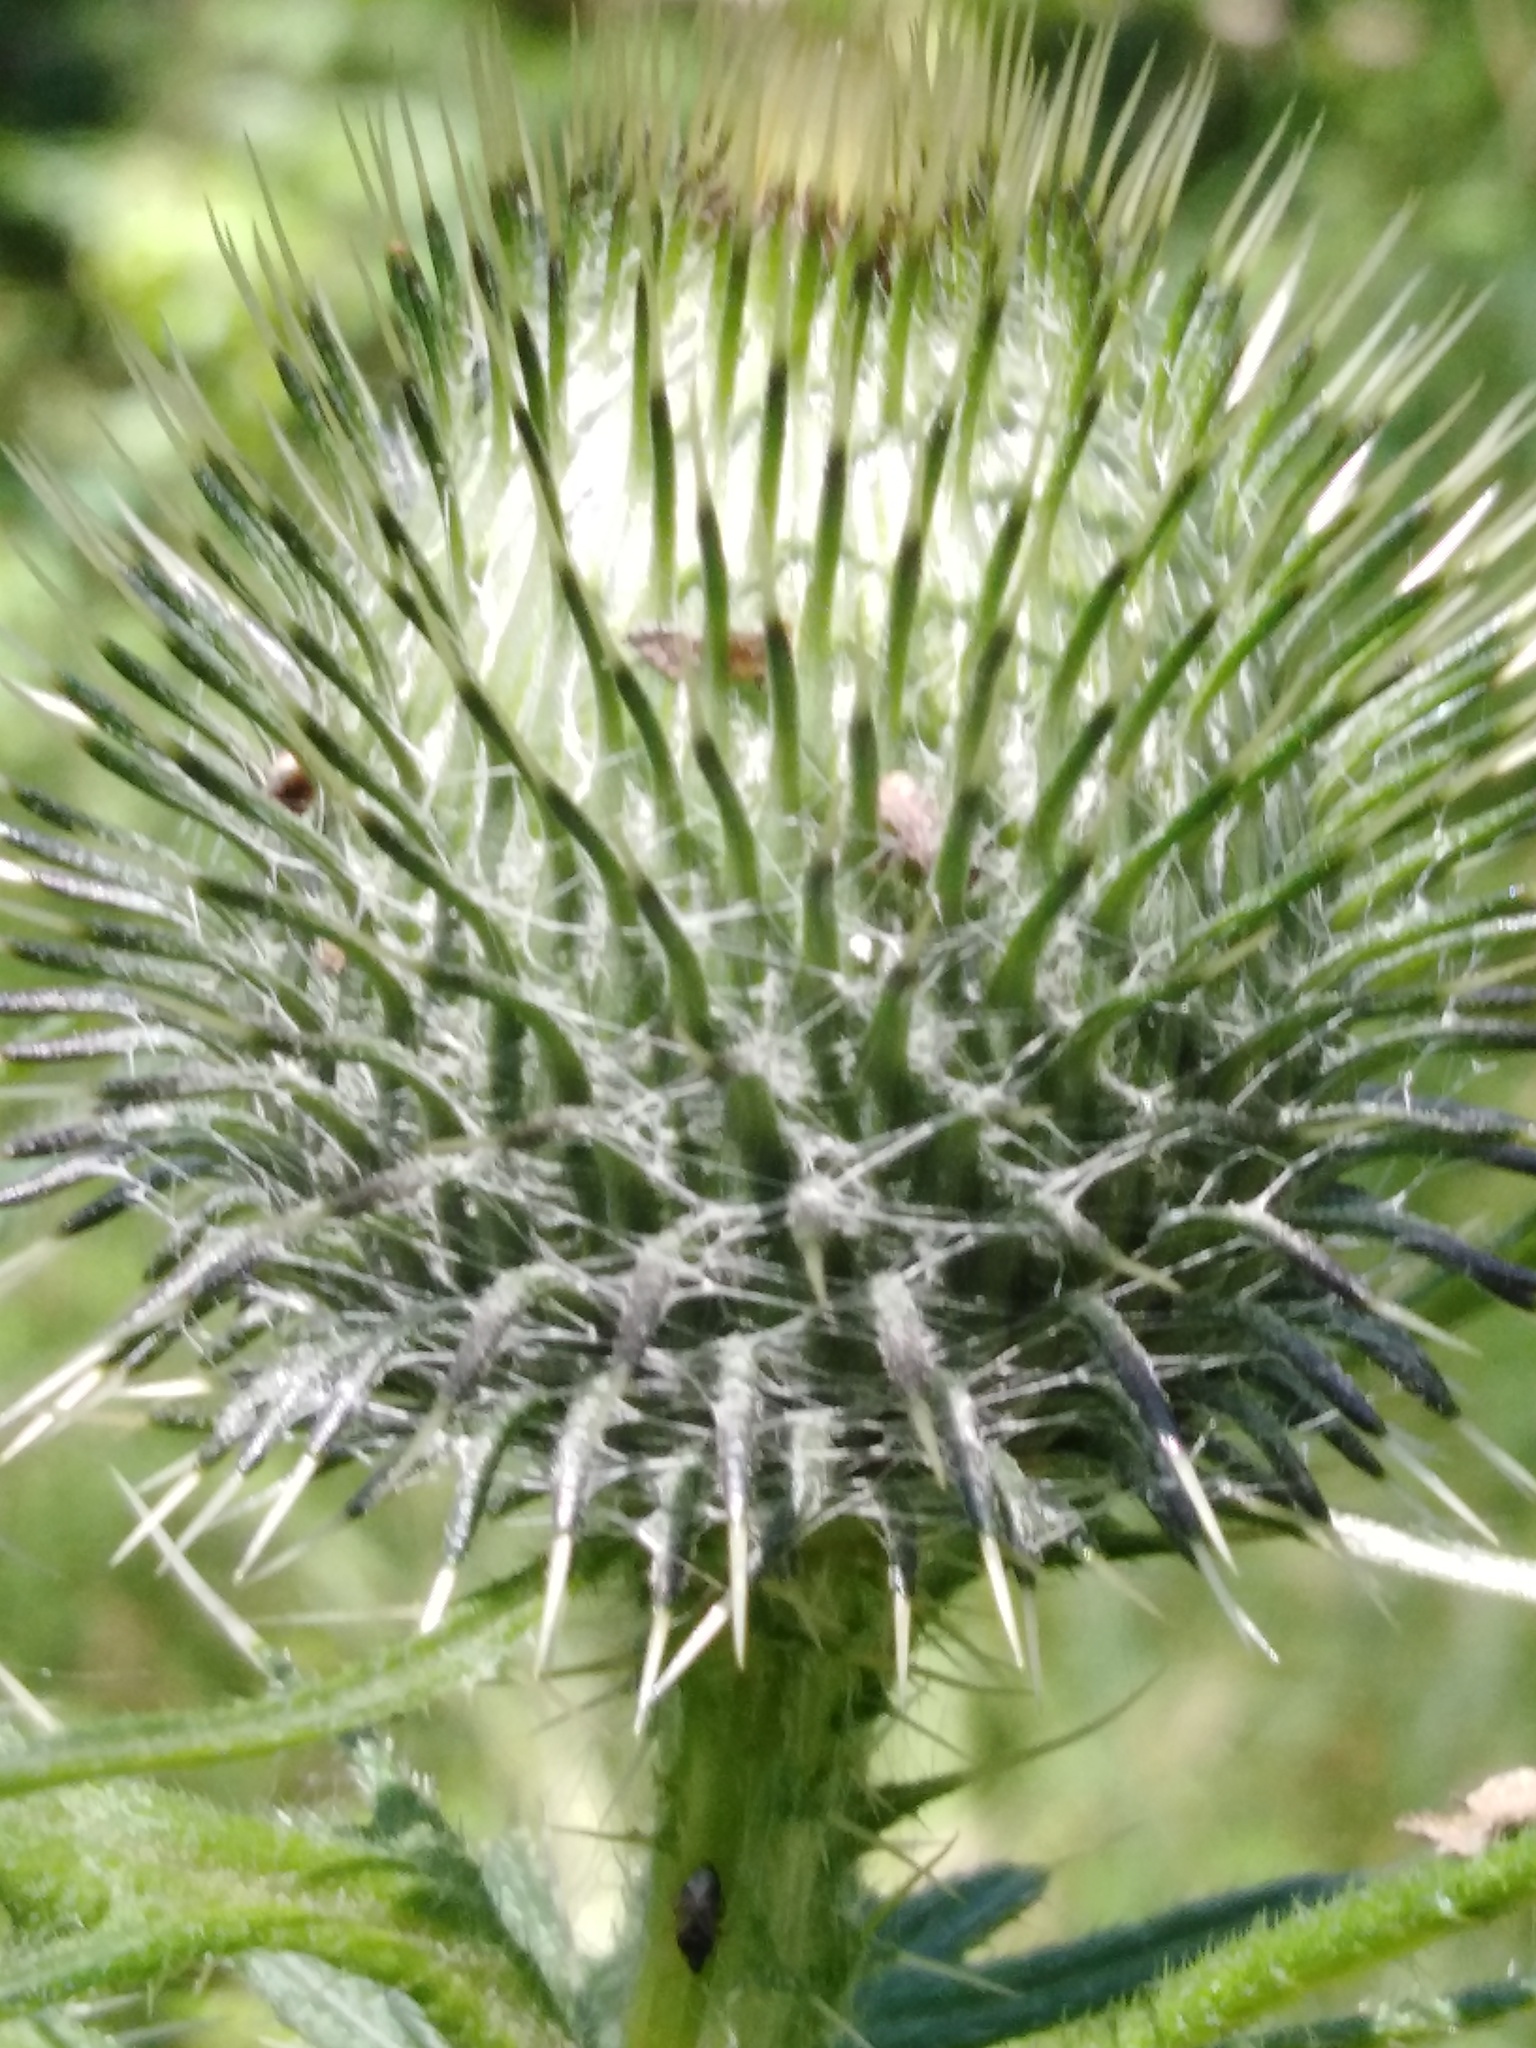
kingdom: Plantae
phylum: Tracheophyta
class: Magnoliopsida
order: Asterales
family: Asteraceae
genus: Cirsium
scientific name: Cirsium vulgare
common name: Bull thistle
